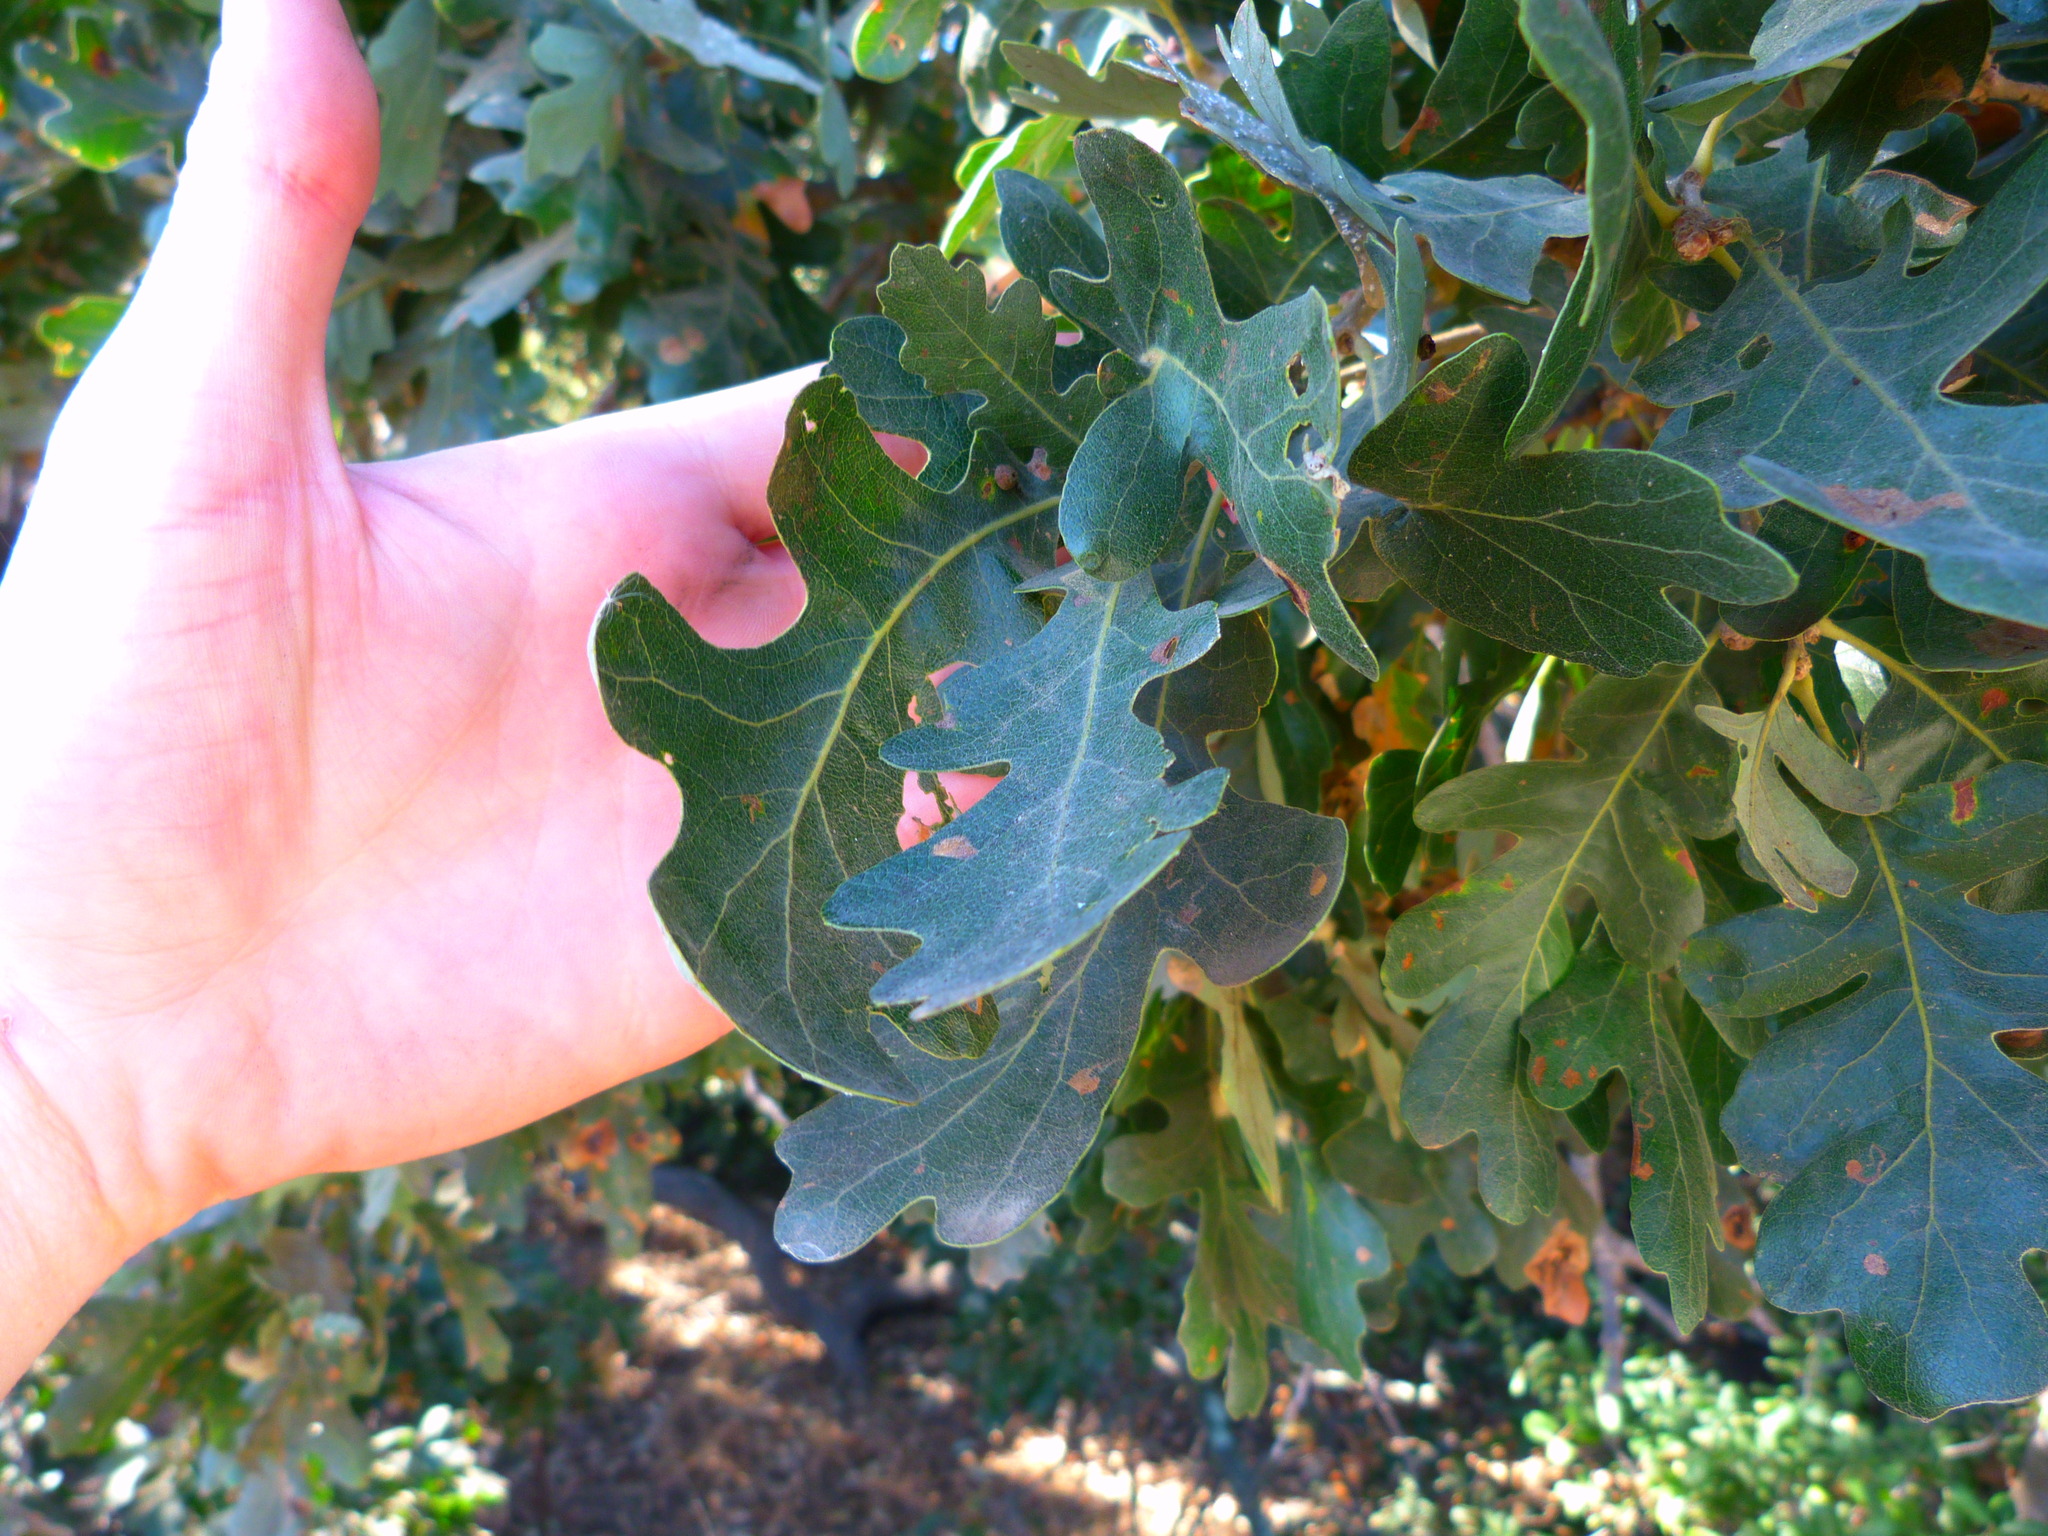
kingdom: Plantae
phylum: Tracheophyta
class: Magnoliopsida
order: Fagales
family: Fagaceae
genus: Quercus
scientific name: Quercus lobata
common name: Valley oak
